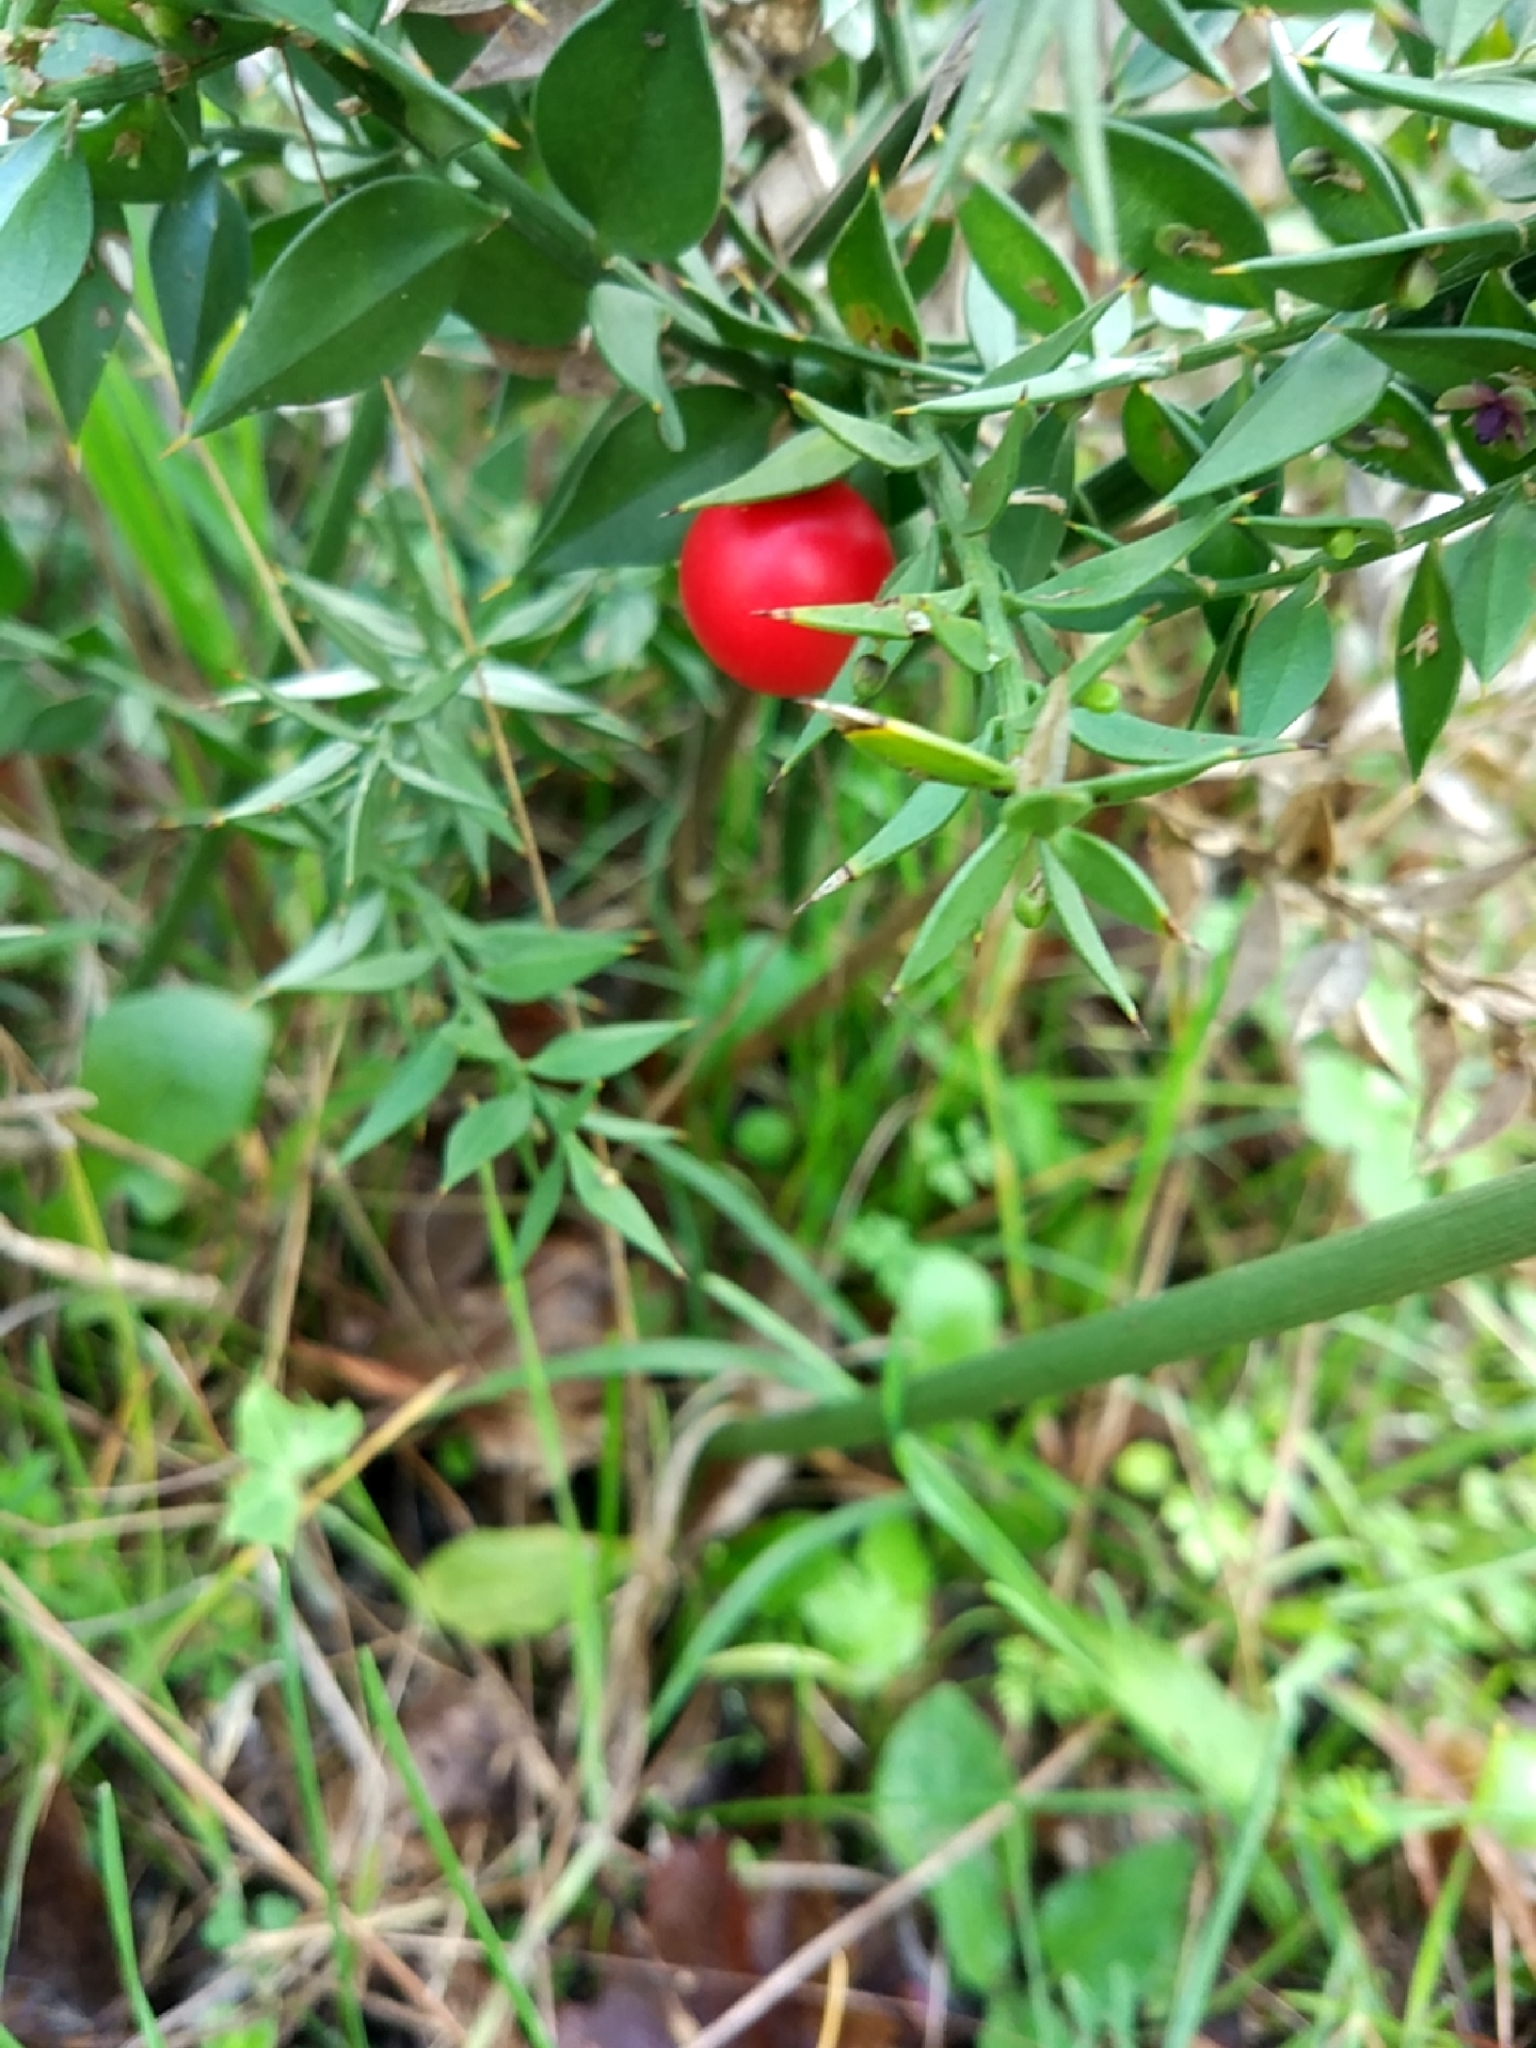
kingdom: Plantae
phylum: Tracheophyta
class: Liliopsida
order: Asparagales
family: Asparagaceae
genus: Ruscus
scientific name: Ruscus aculeatus
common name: Butcher's-broom
